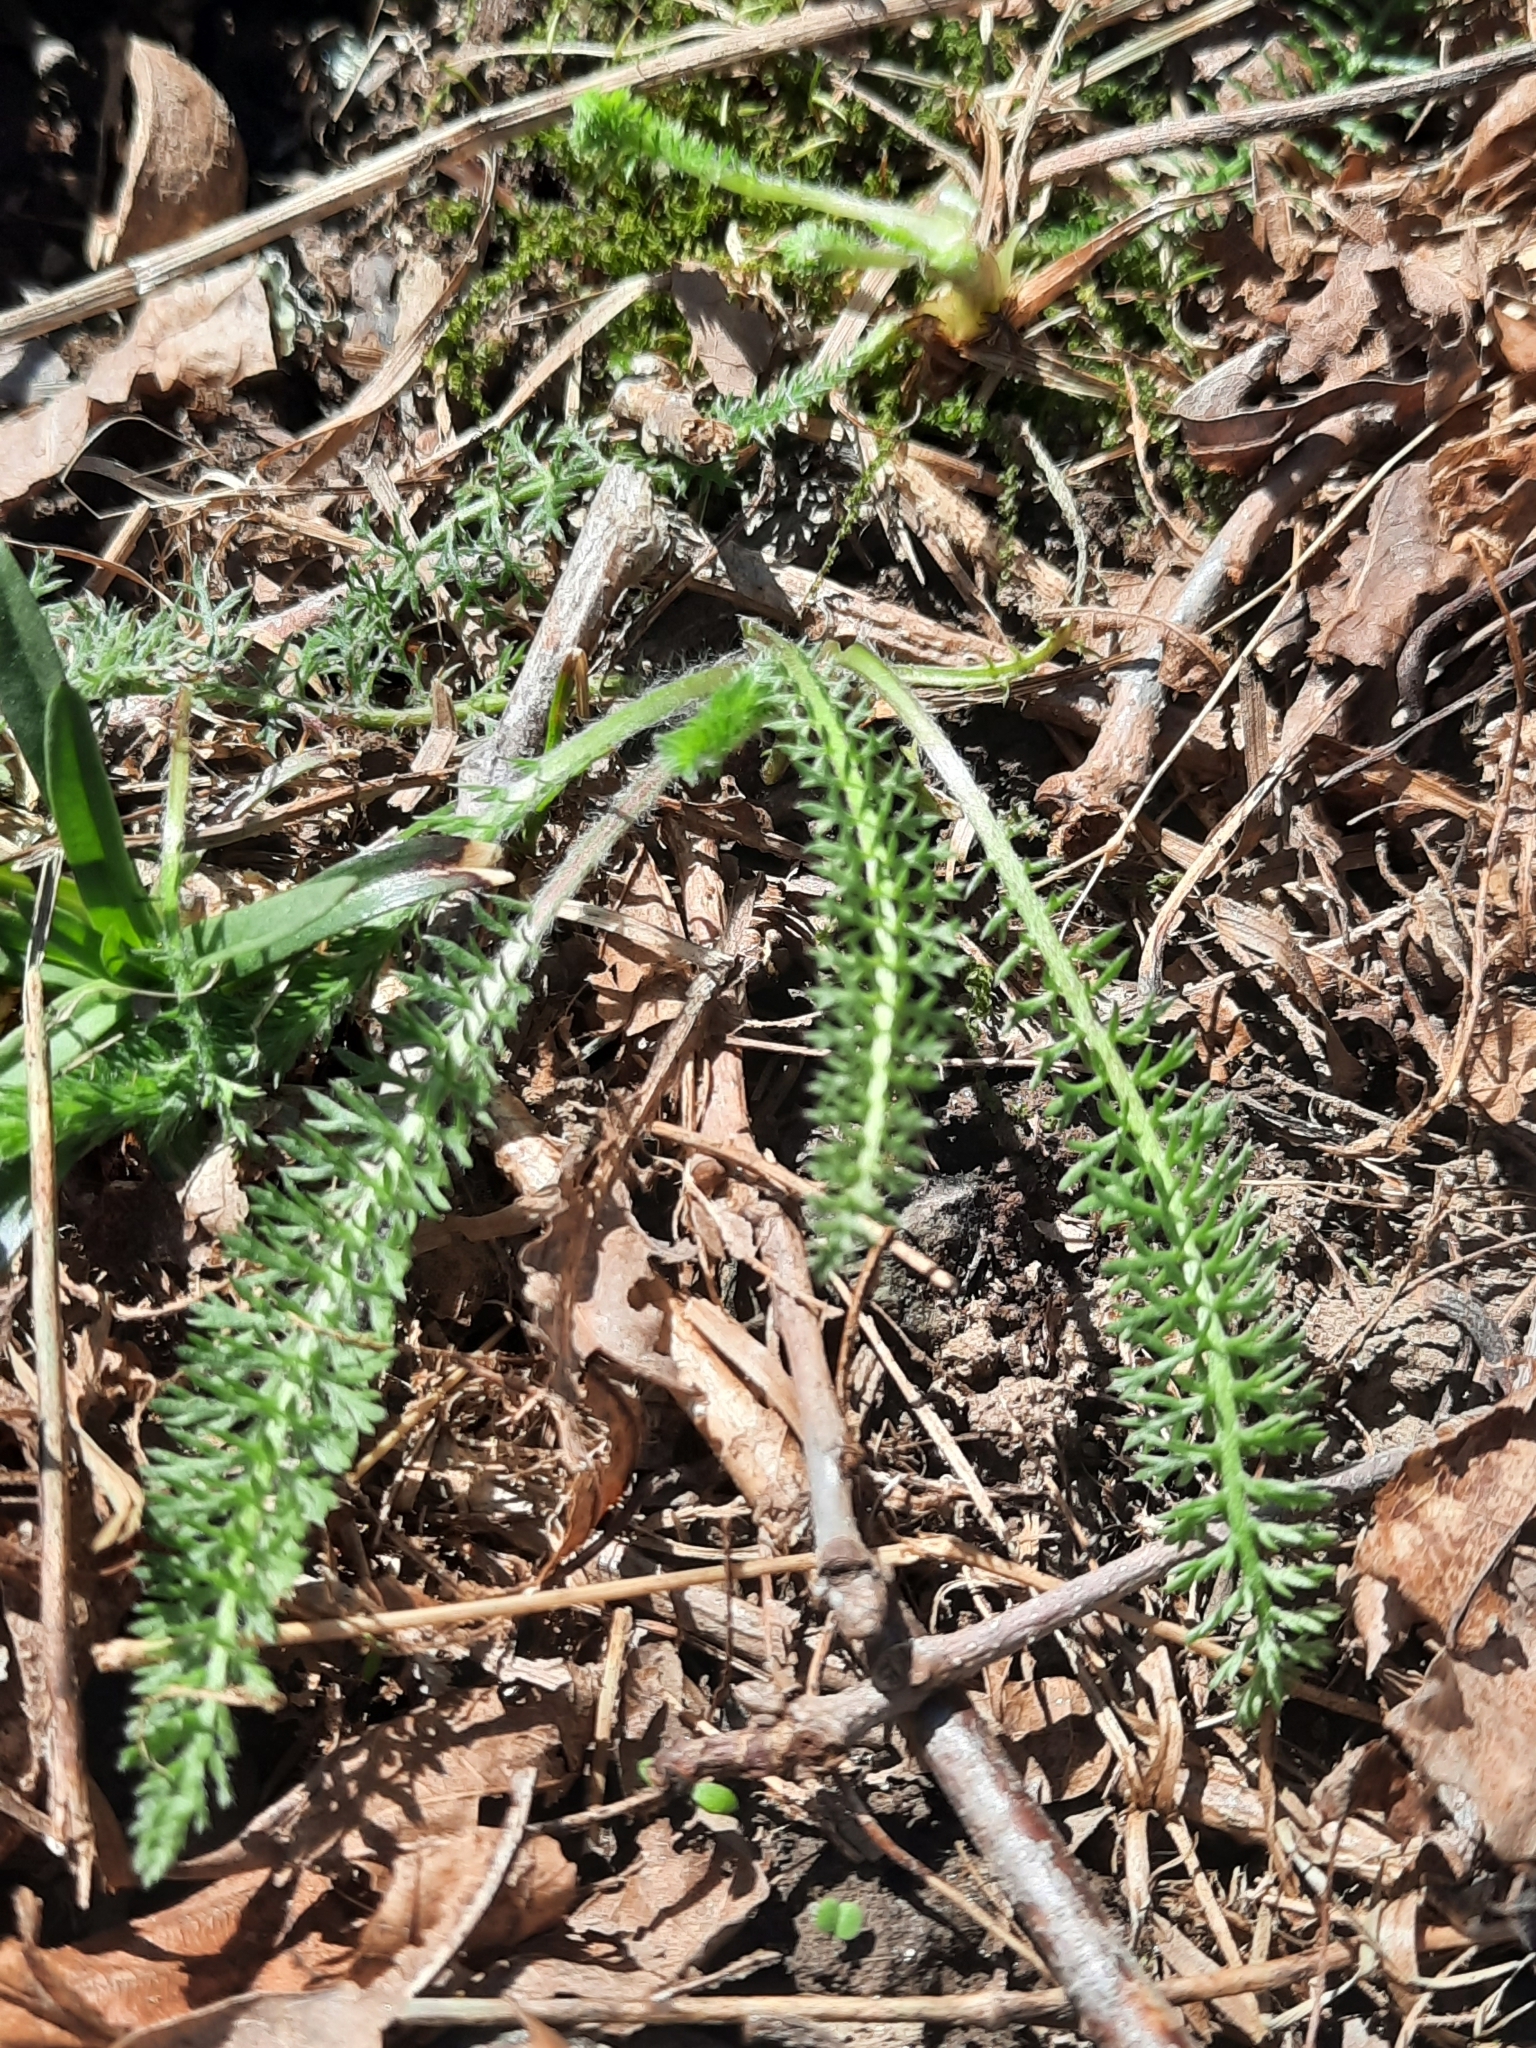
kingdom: Plantae
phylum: Tracheophyta
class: Magnoliopsida
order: Asterales
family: Asteraceae
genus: Achillea
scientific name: Achillea millefolium
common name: Yarrow
